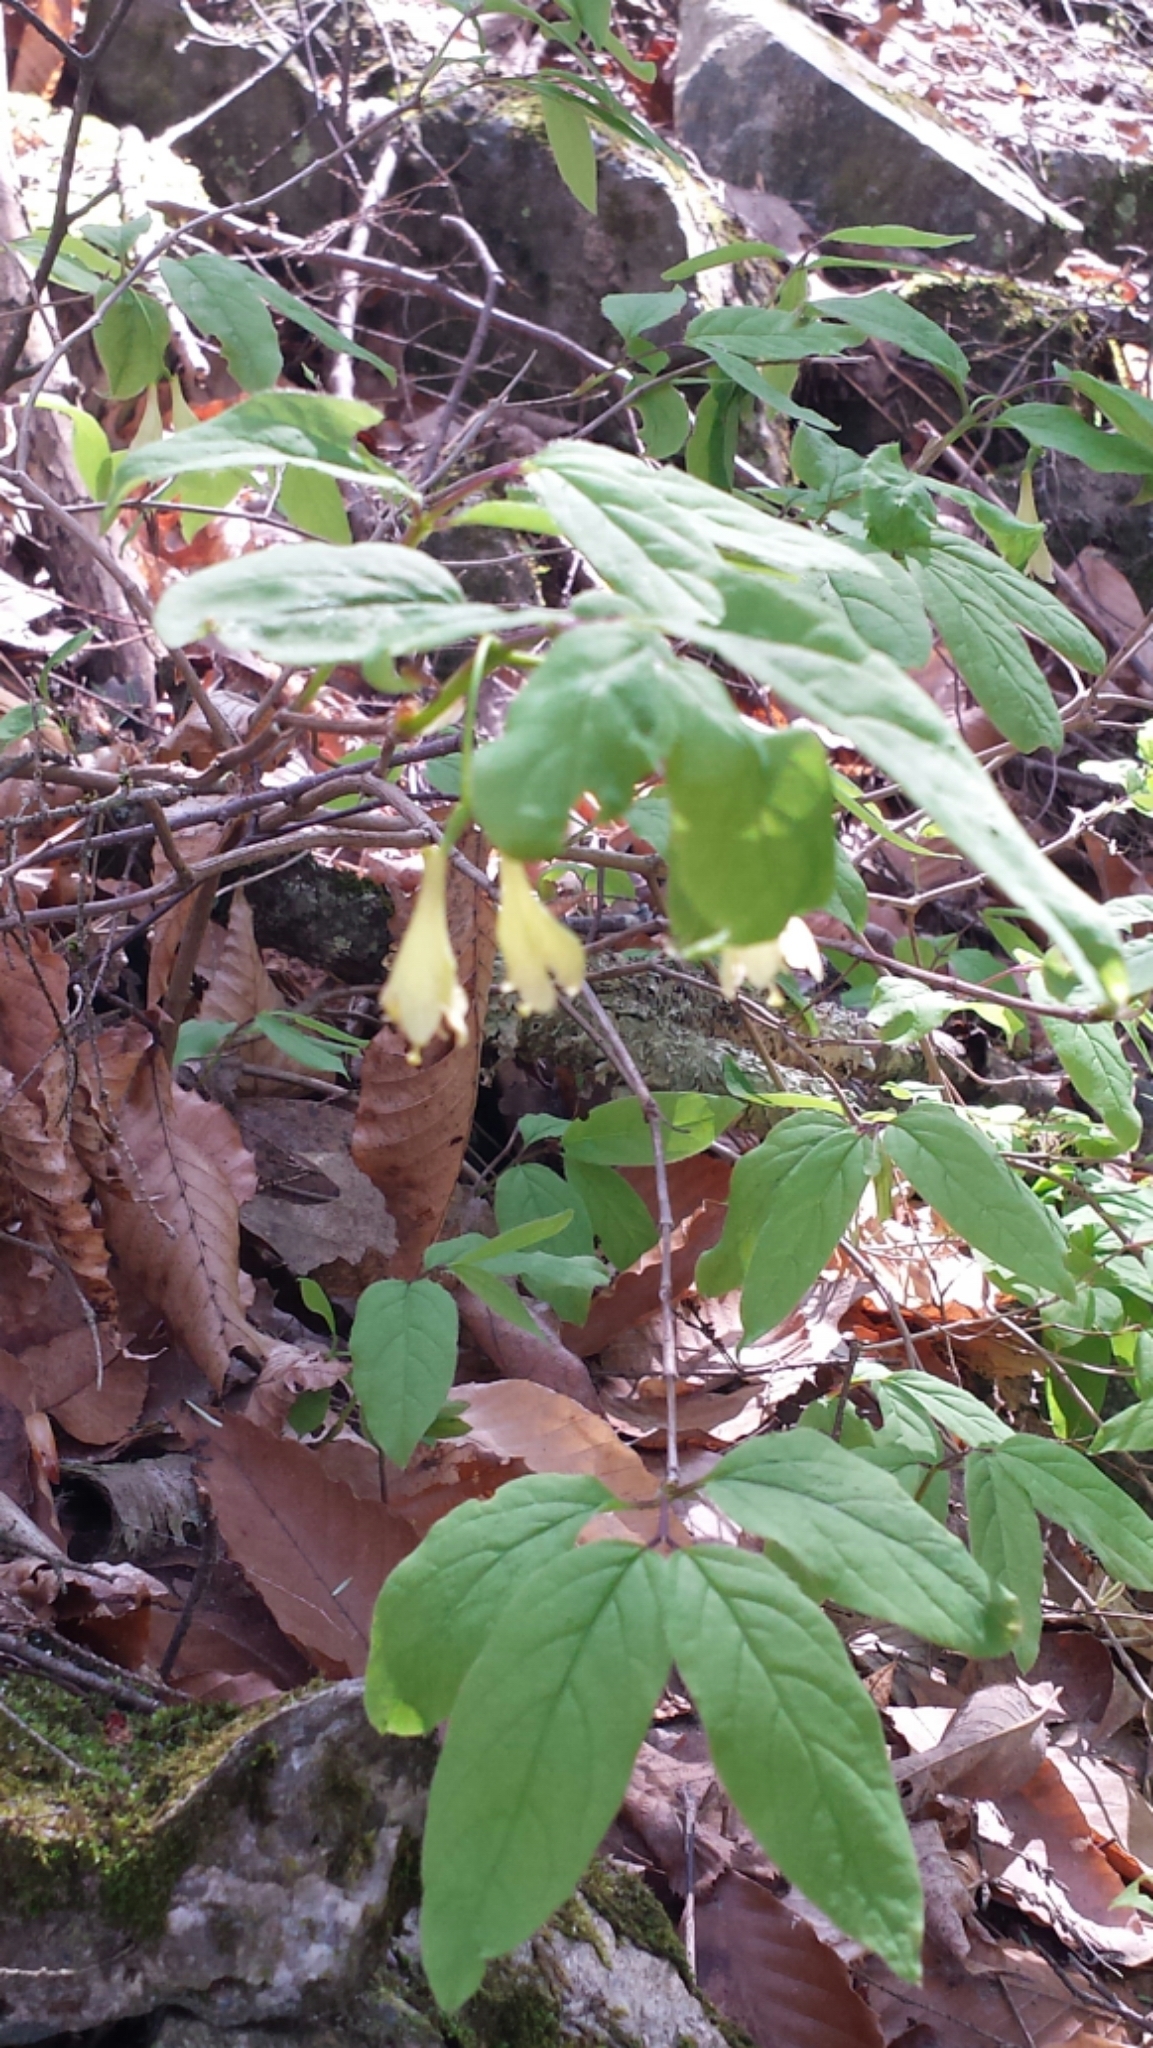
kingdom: Plantae
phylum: Tracheophyta
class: Magnoliopsida
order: Dipsacales
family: Caprifoliaceae
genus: Lonicera
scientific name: Lonicera canadensis
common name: American fly-honeysuckle
